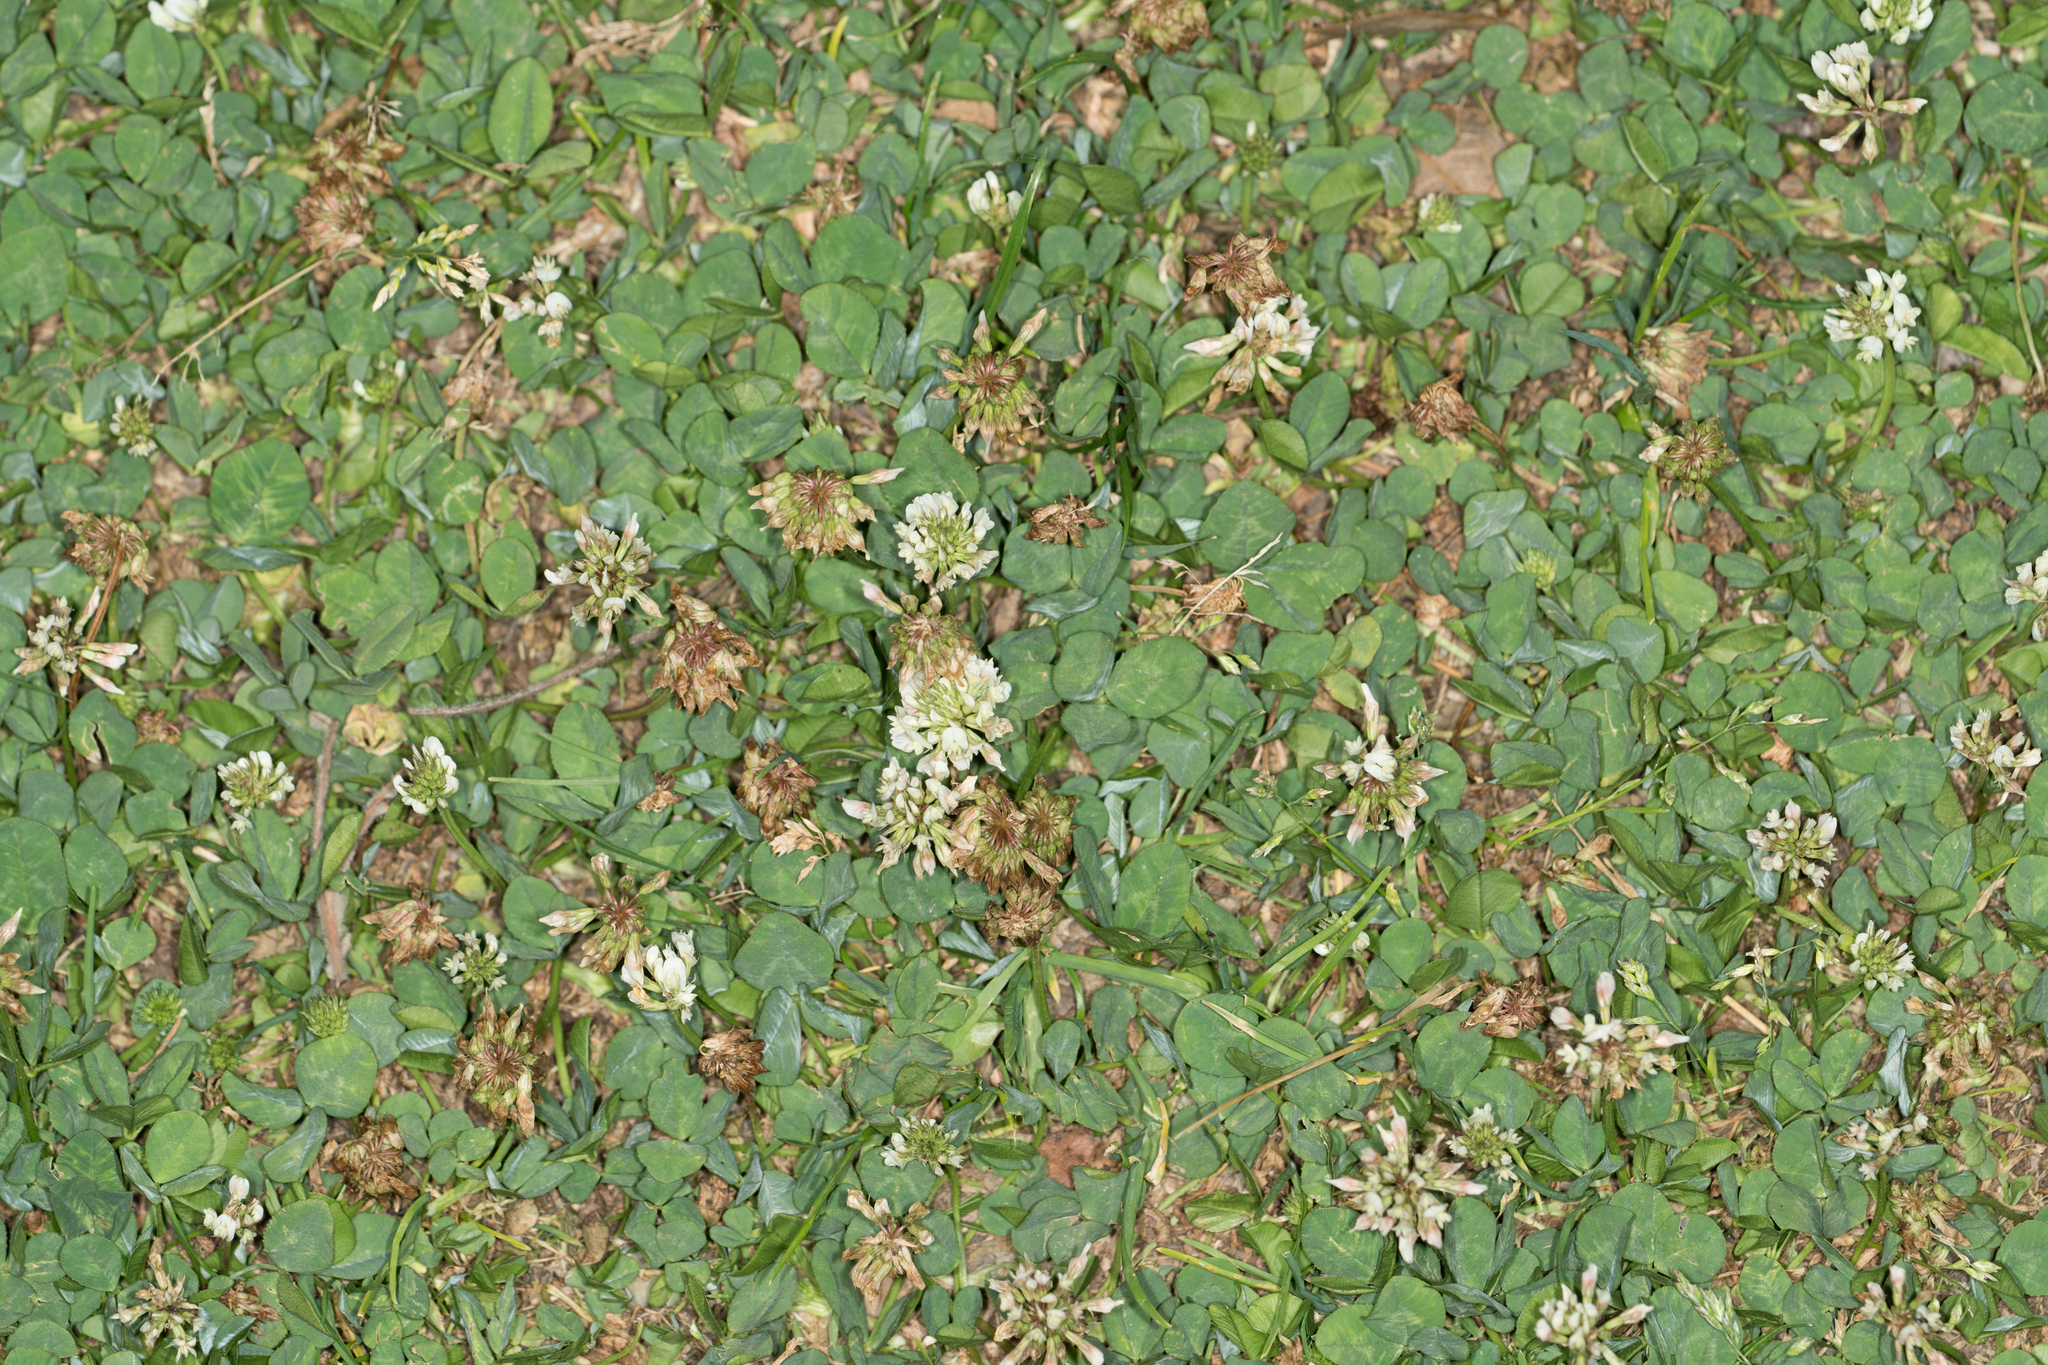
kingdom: Plantae
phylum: Tracheophyta
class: Magnoliopsida
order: Fabales
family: Fabaceae
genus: Trifolium
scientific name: Trifolium repens
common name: White clover
